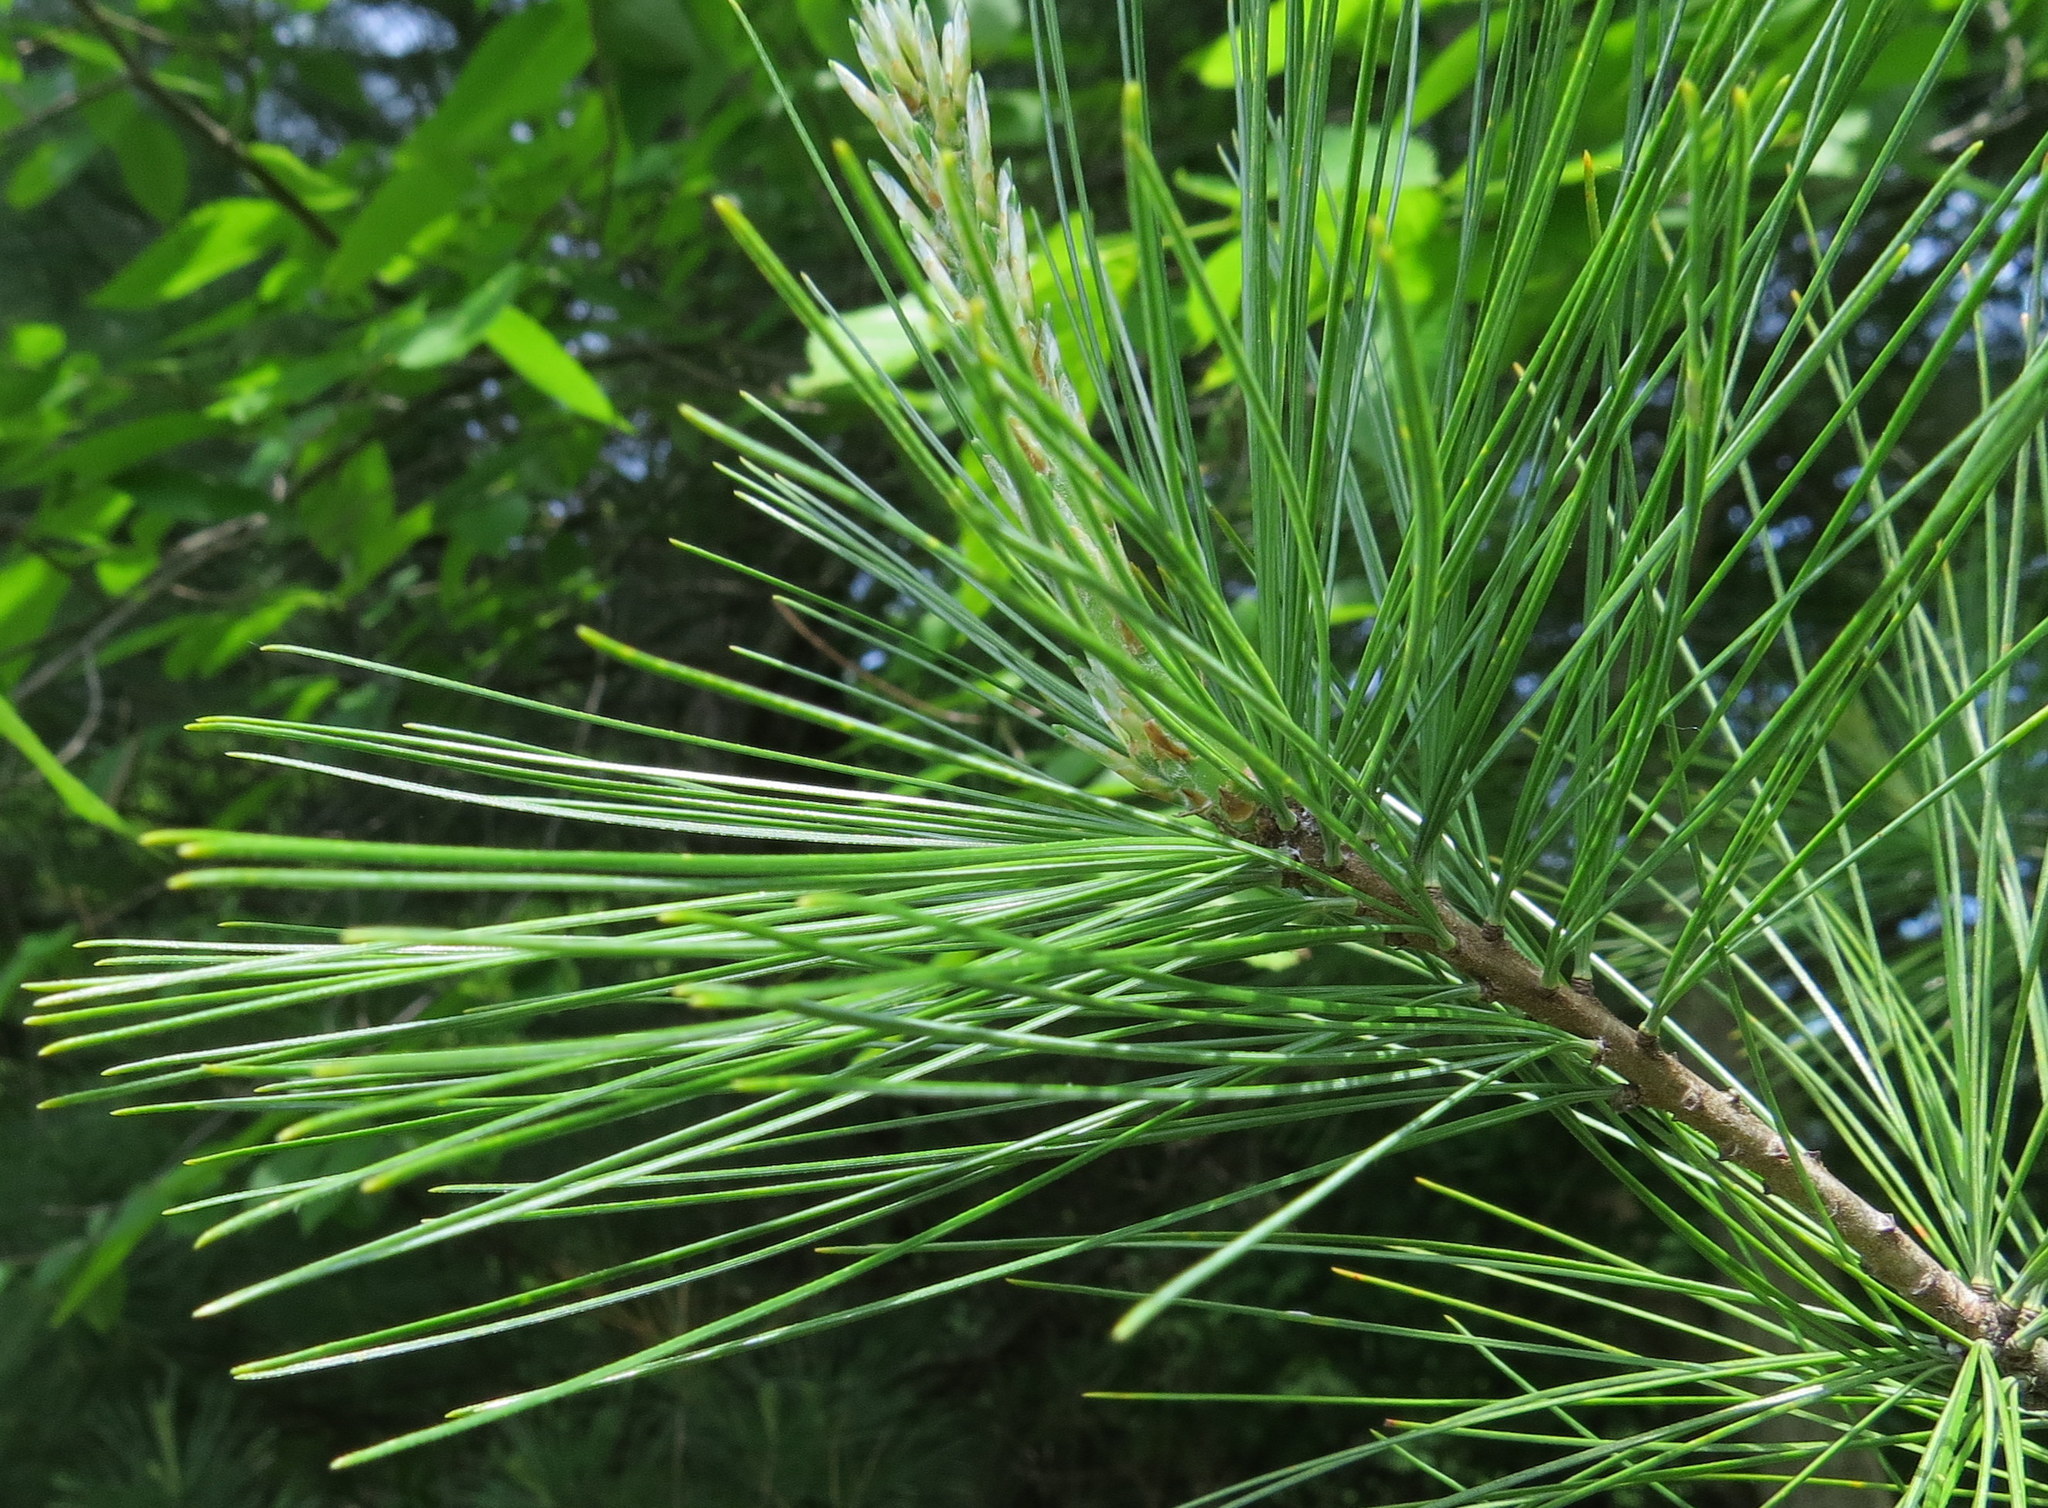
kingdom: Plantae
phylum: Tracheophyta
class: Pinopsida
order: Pinales
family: Pinaceae
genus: Pinus
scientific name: Pinus strobus
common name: Weymouth pine
